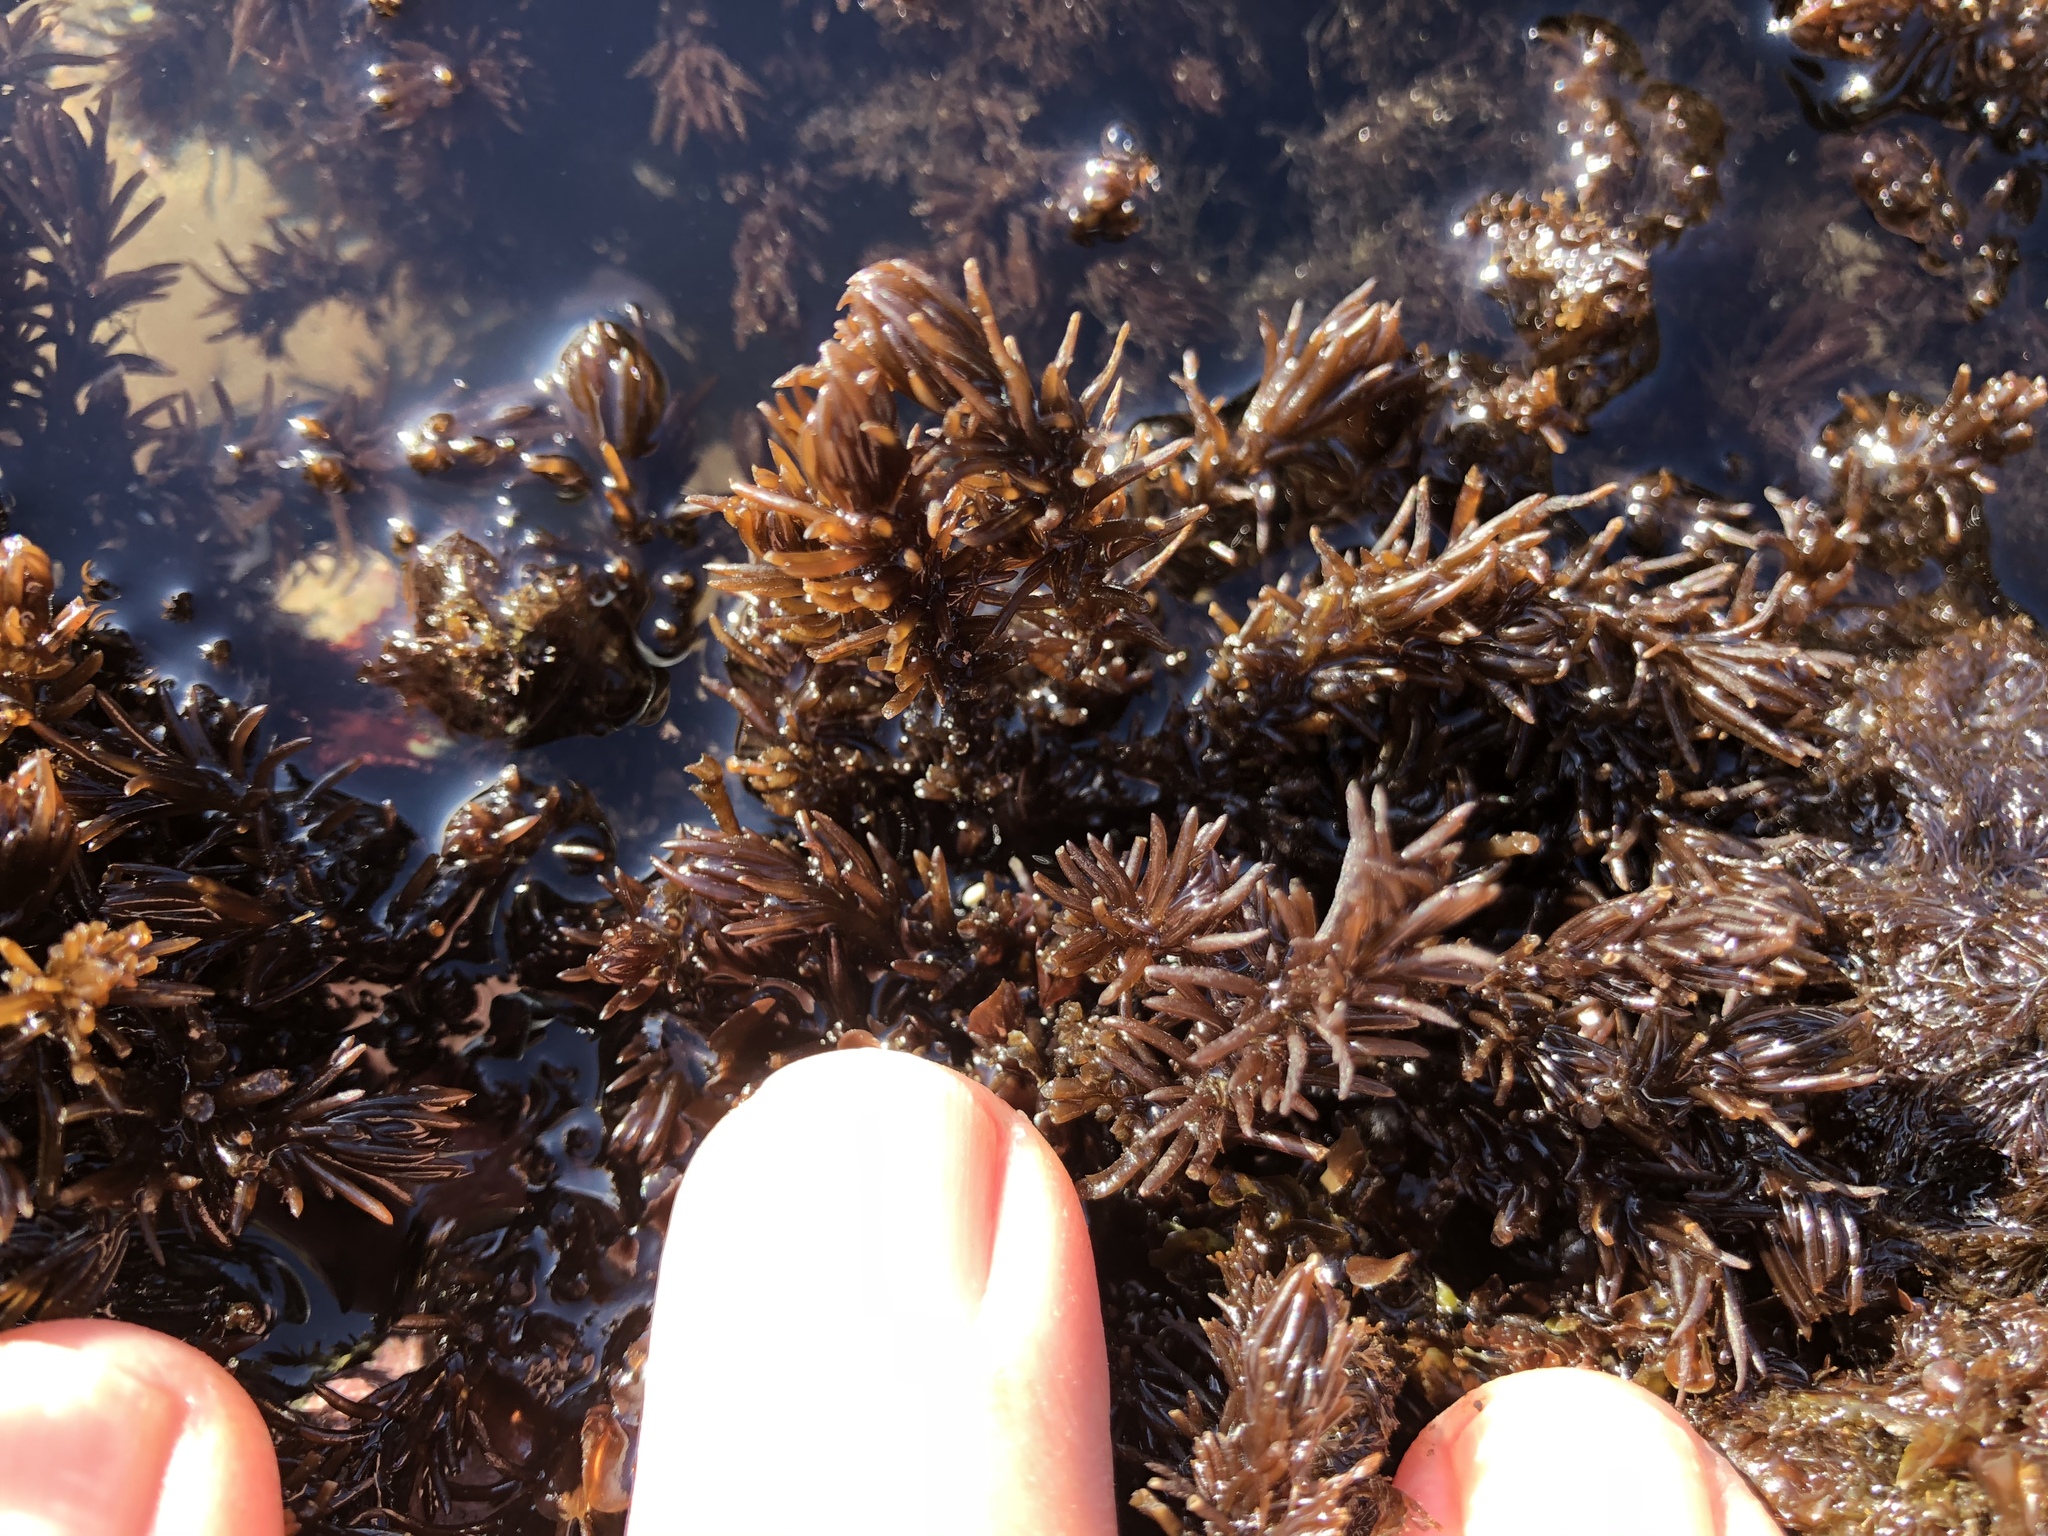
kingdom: Plantae
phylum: Rhodophyta
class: Florideophyceae
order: Ceramiales
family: Rhodomelaceae
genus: Neorhodomela
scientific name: Neorhodomela larix
